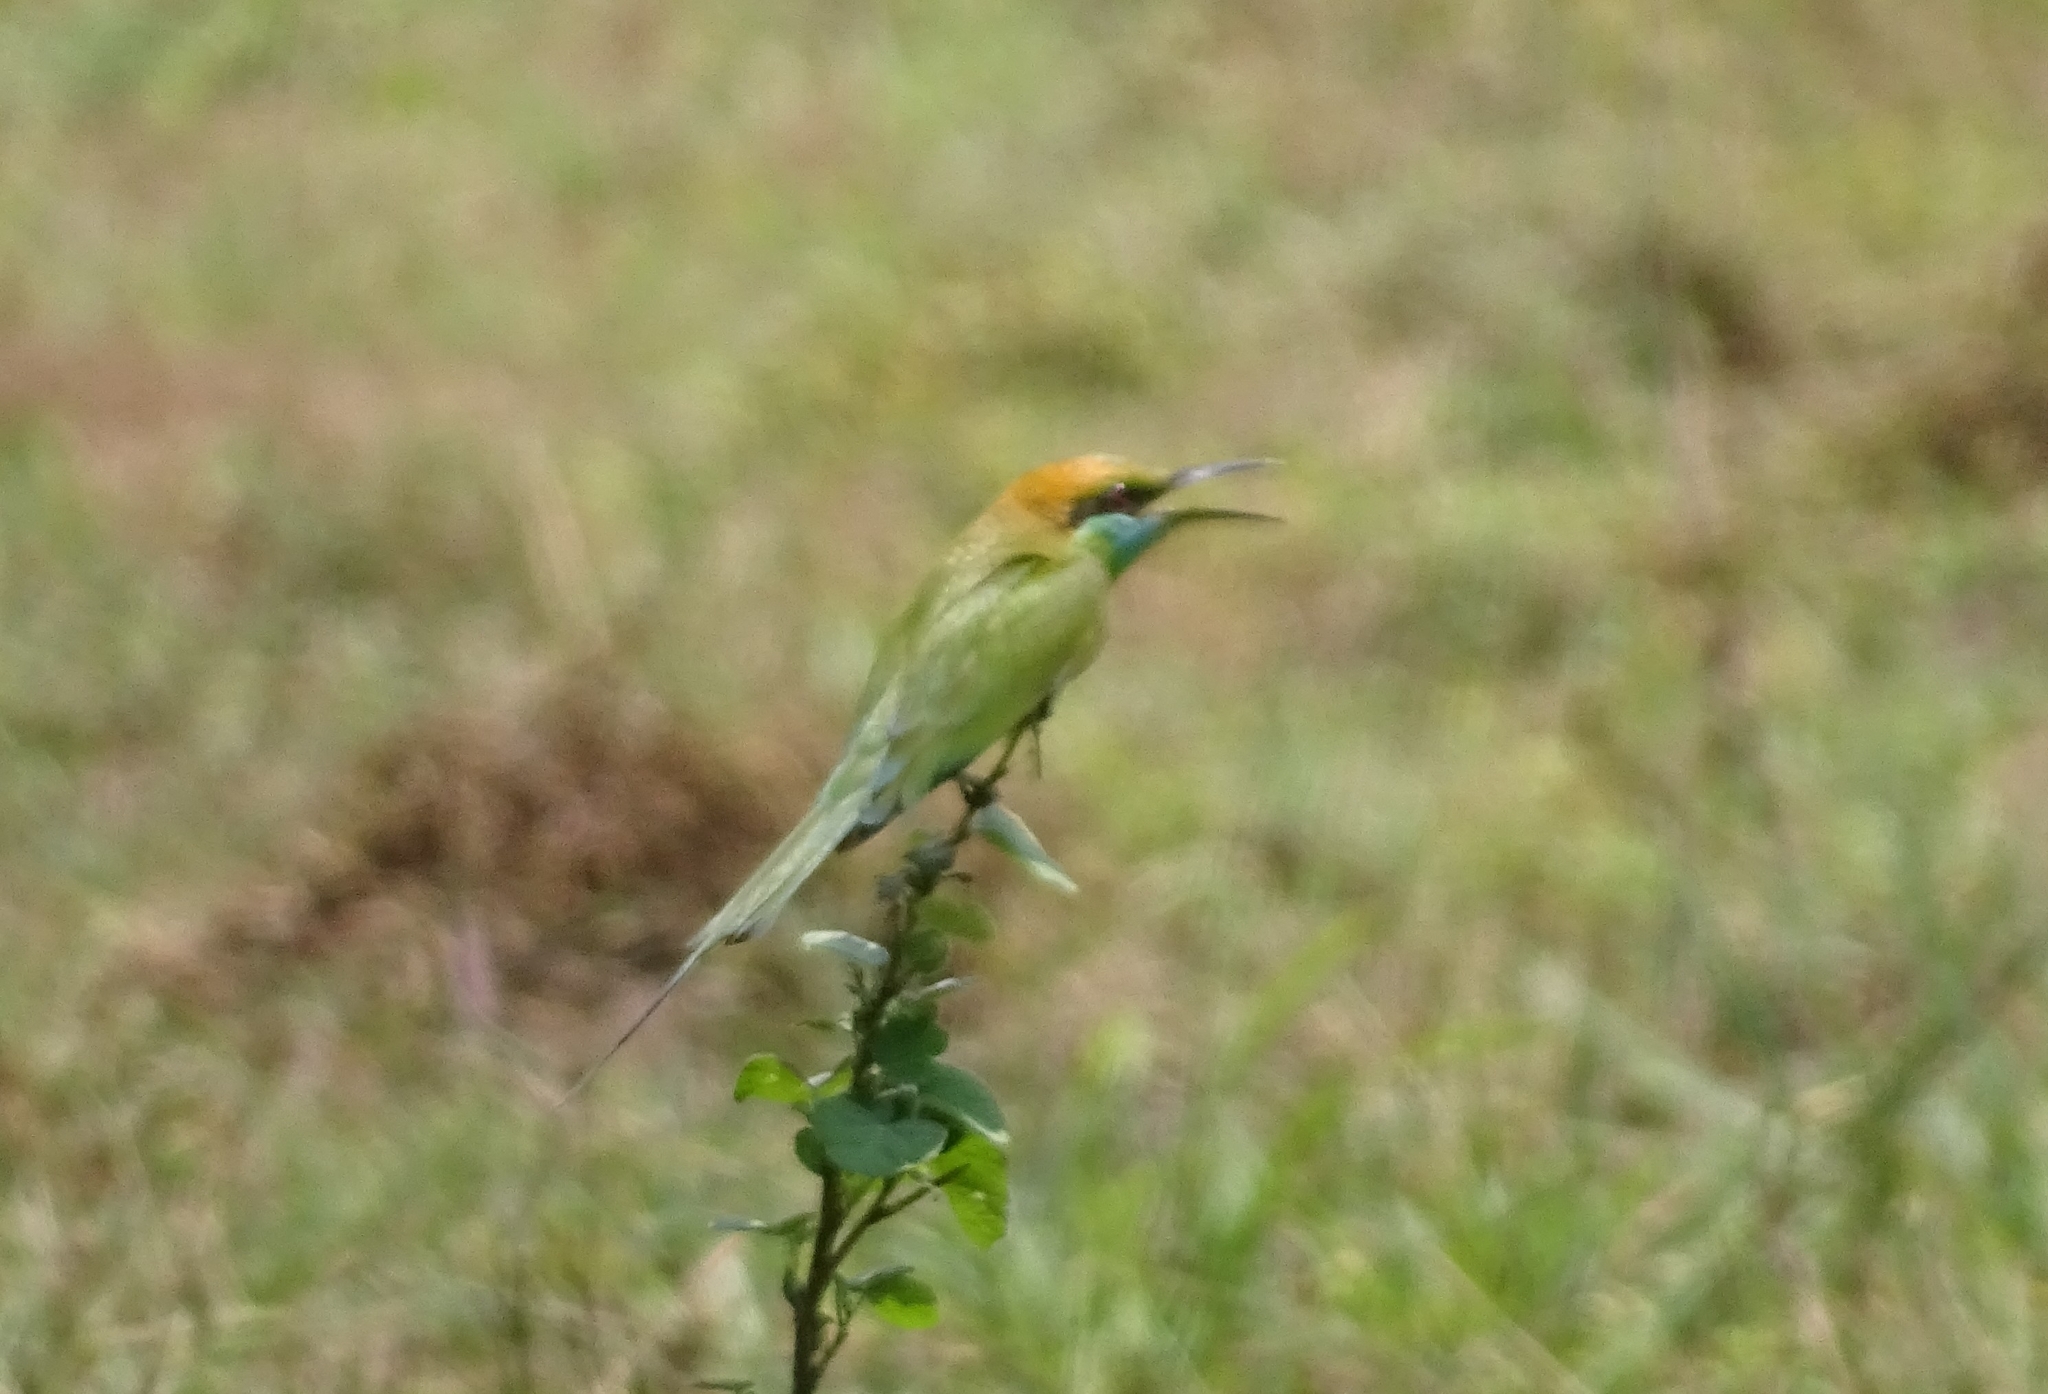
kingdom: Animalia
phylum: Chordata
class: Aves
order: Coraciiformes
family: Meropidae
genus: Merops
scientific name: Merops orientalis
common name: Green bee-eater
